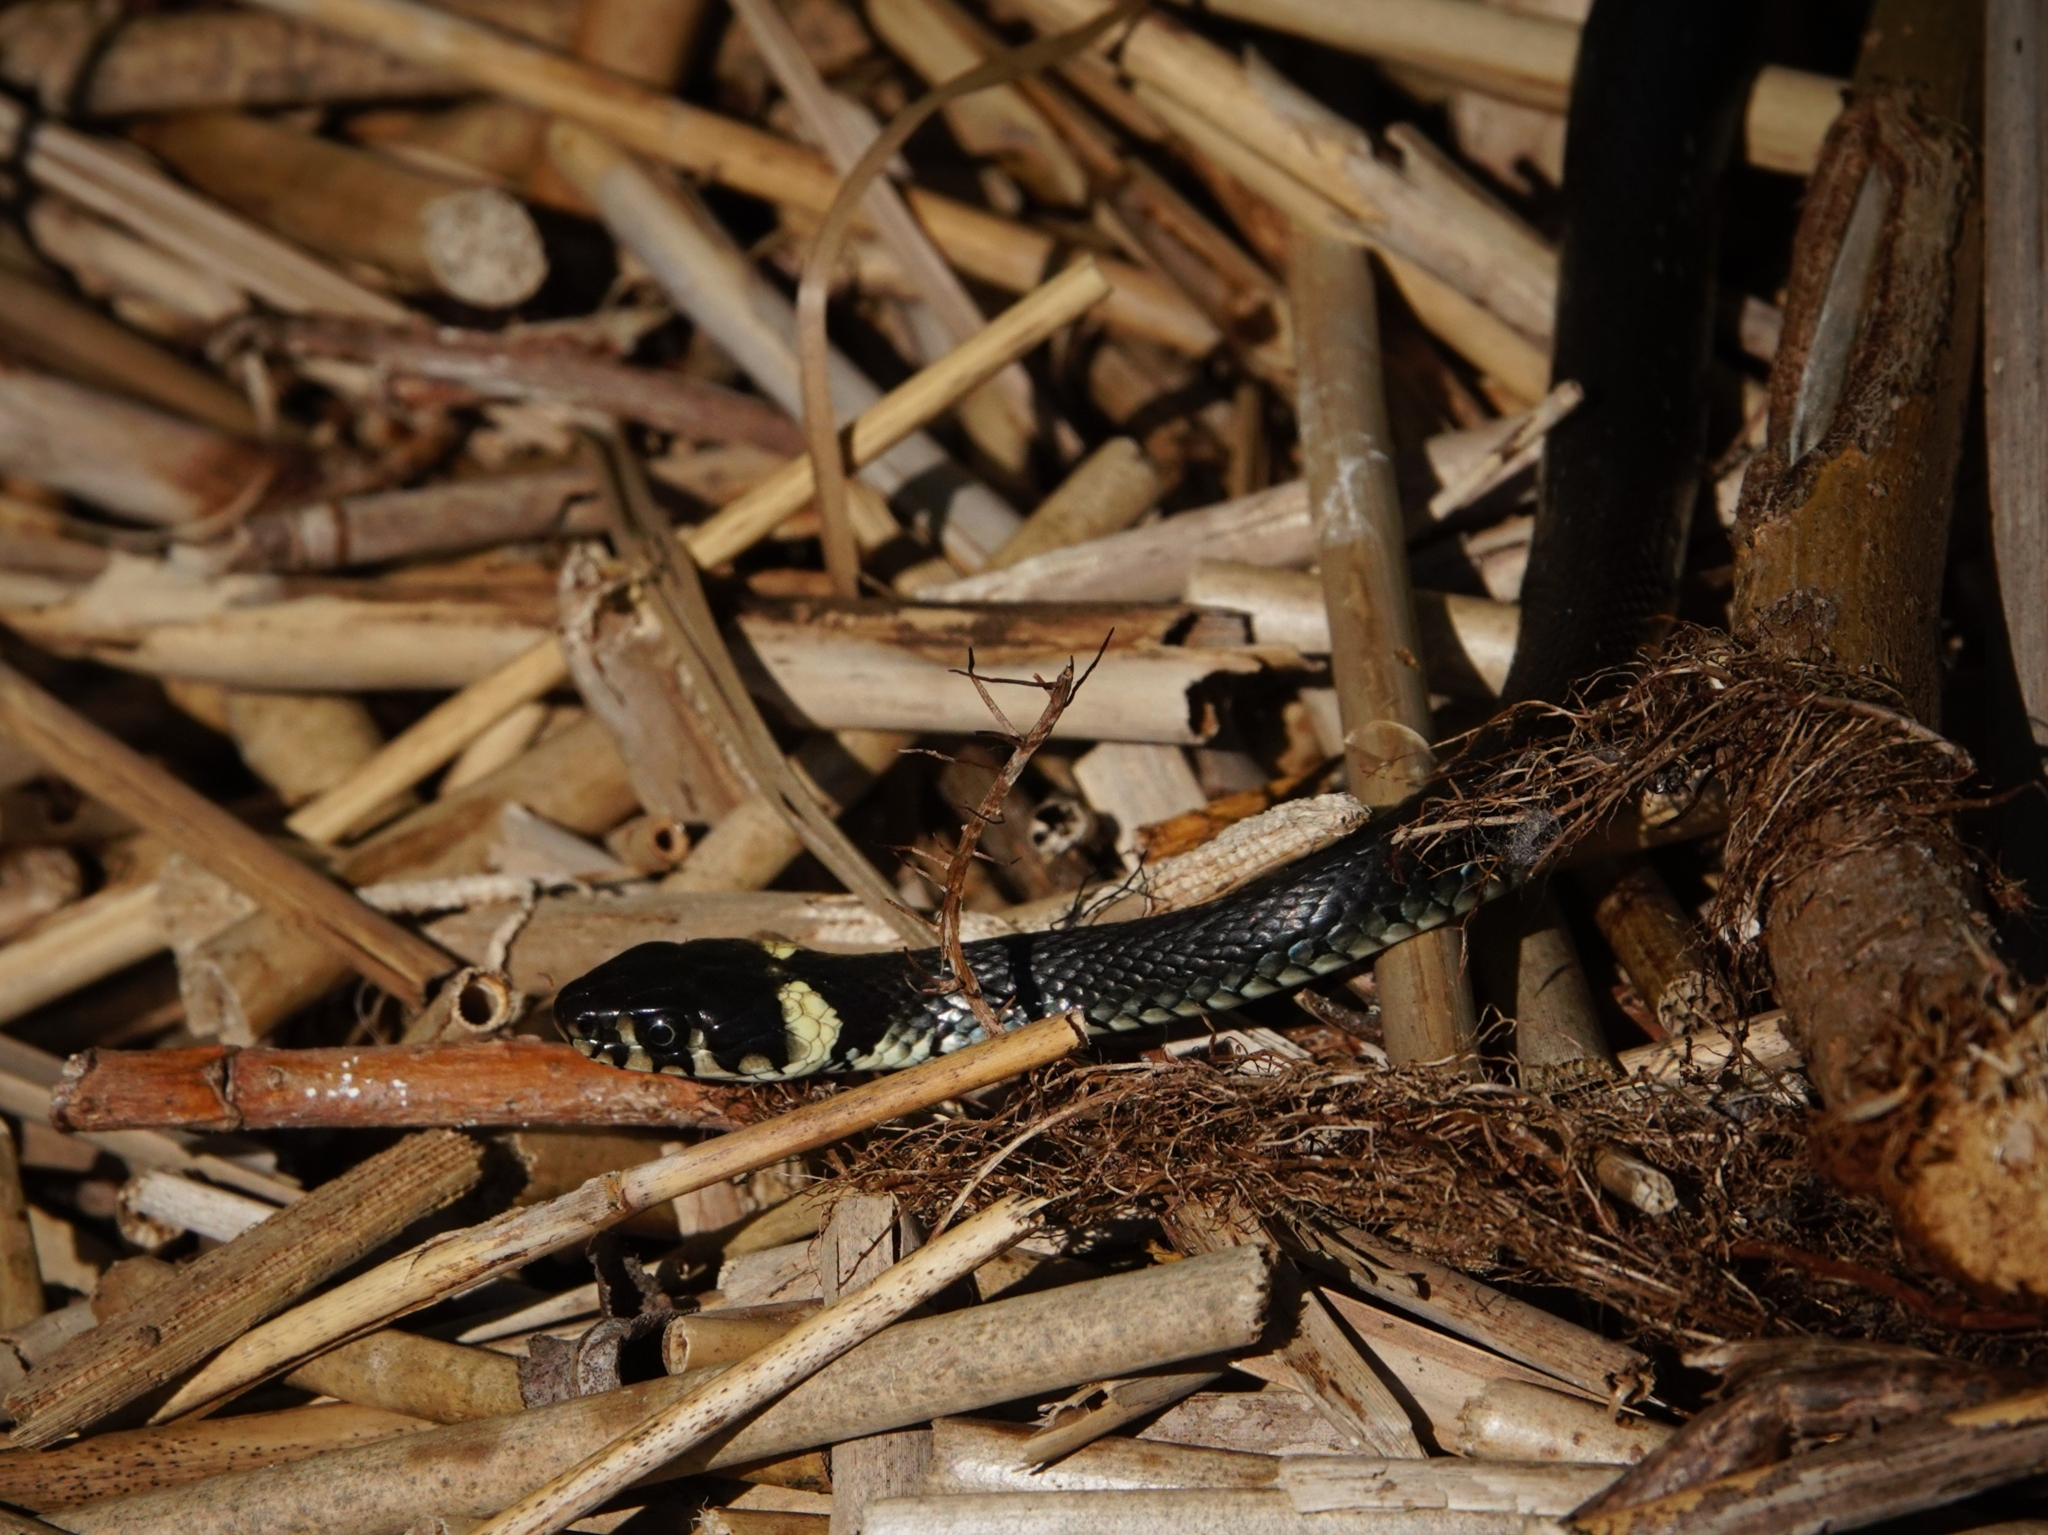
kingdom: Animalia
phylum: Chordata
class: Squamata
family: Colubridae
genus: Natrix
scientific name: Natrix natrix
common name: Grass snake
